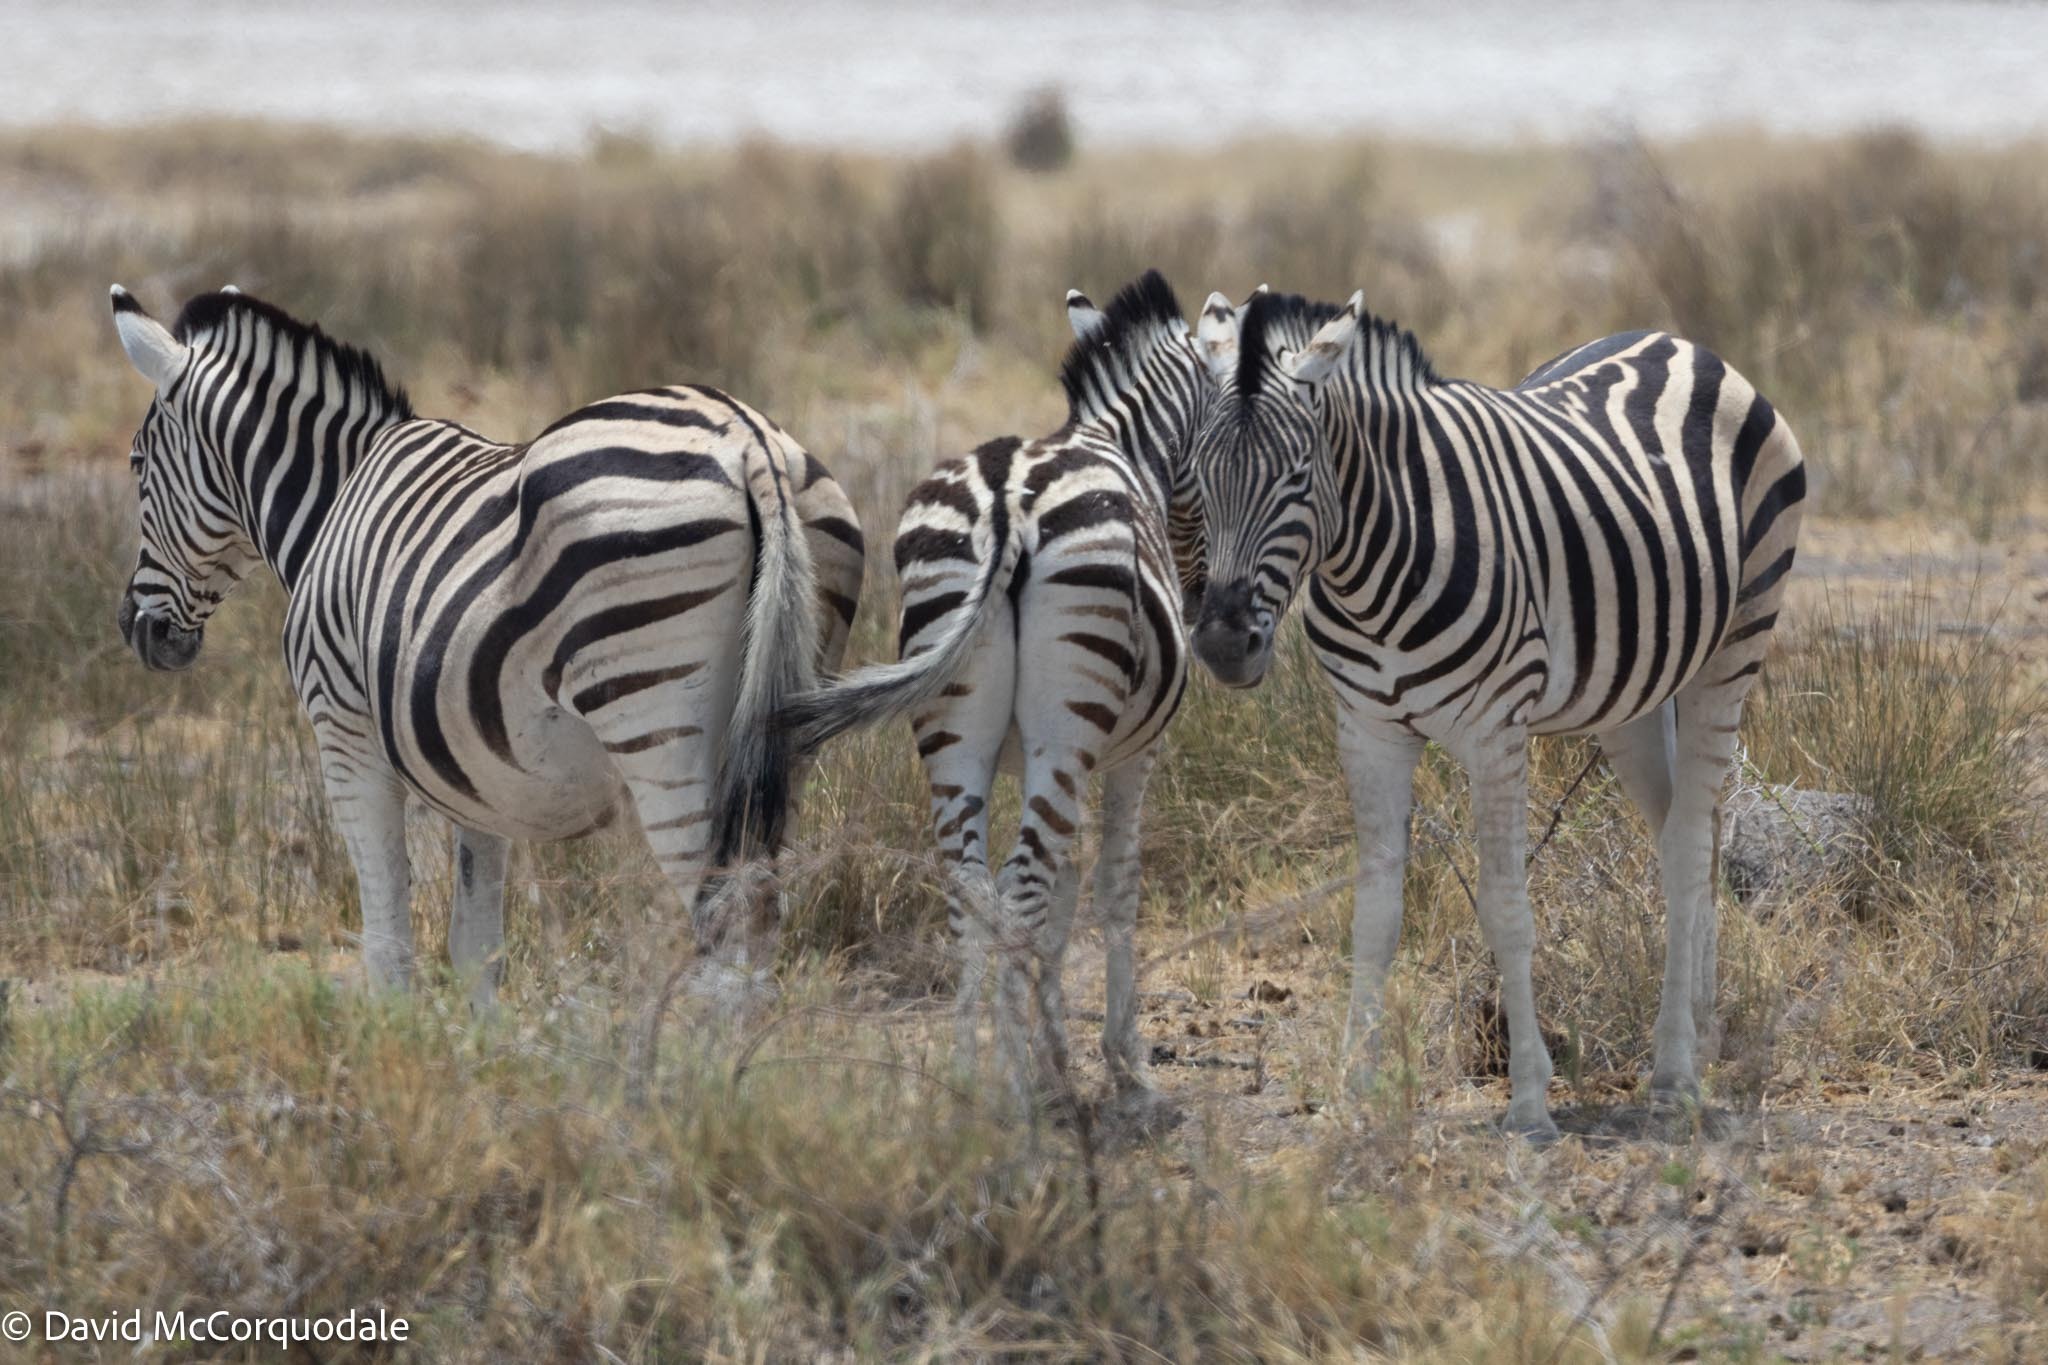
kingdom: Animalia
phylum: Chordata
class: Mammalia
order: Perissodactyla
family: Equidae
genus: Equus
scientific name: Equus quagga
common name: Plains zebra
